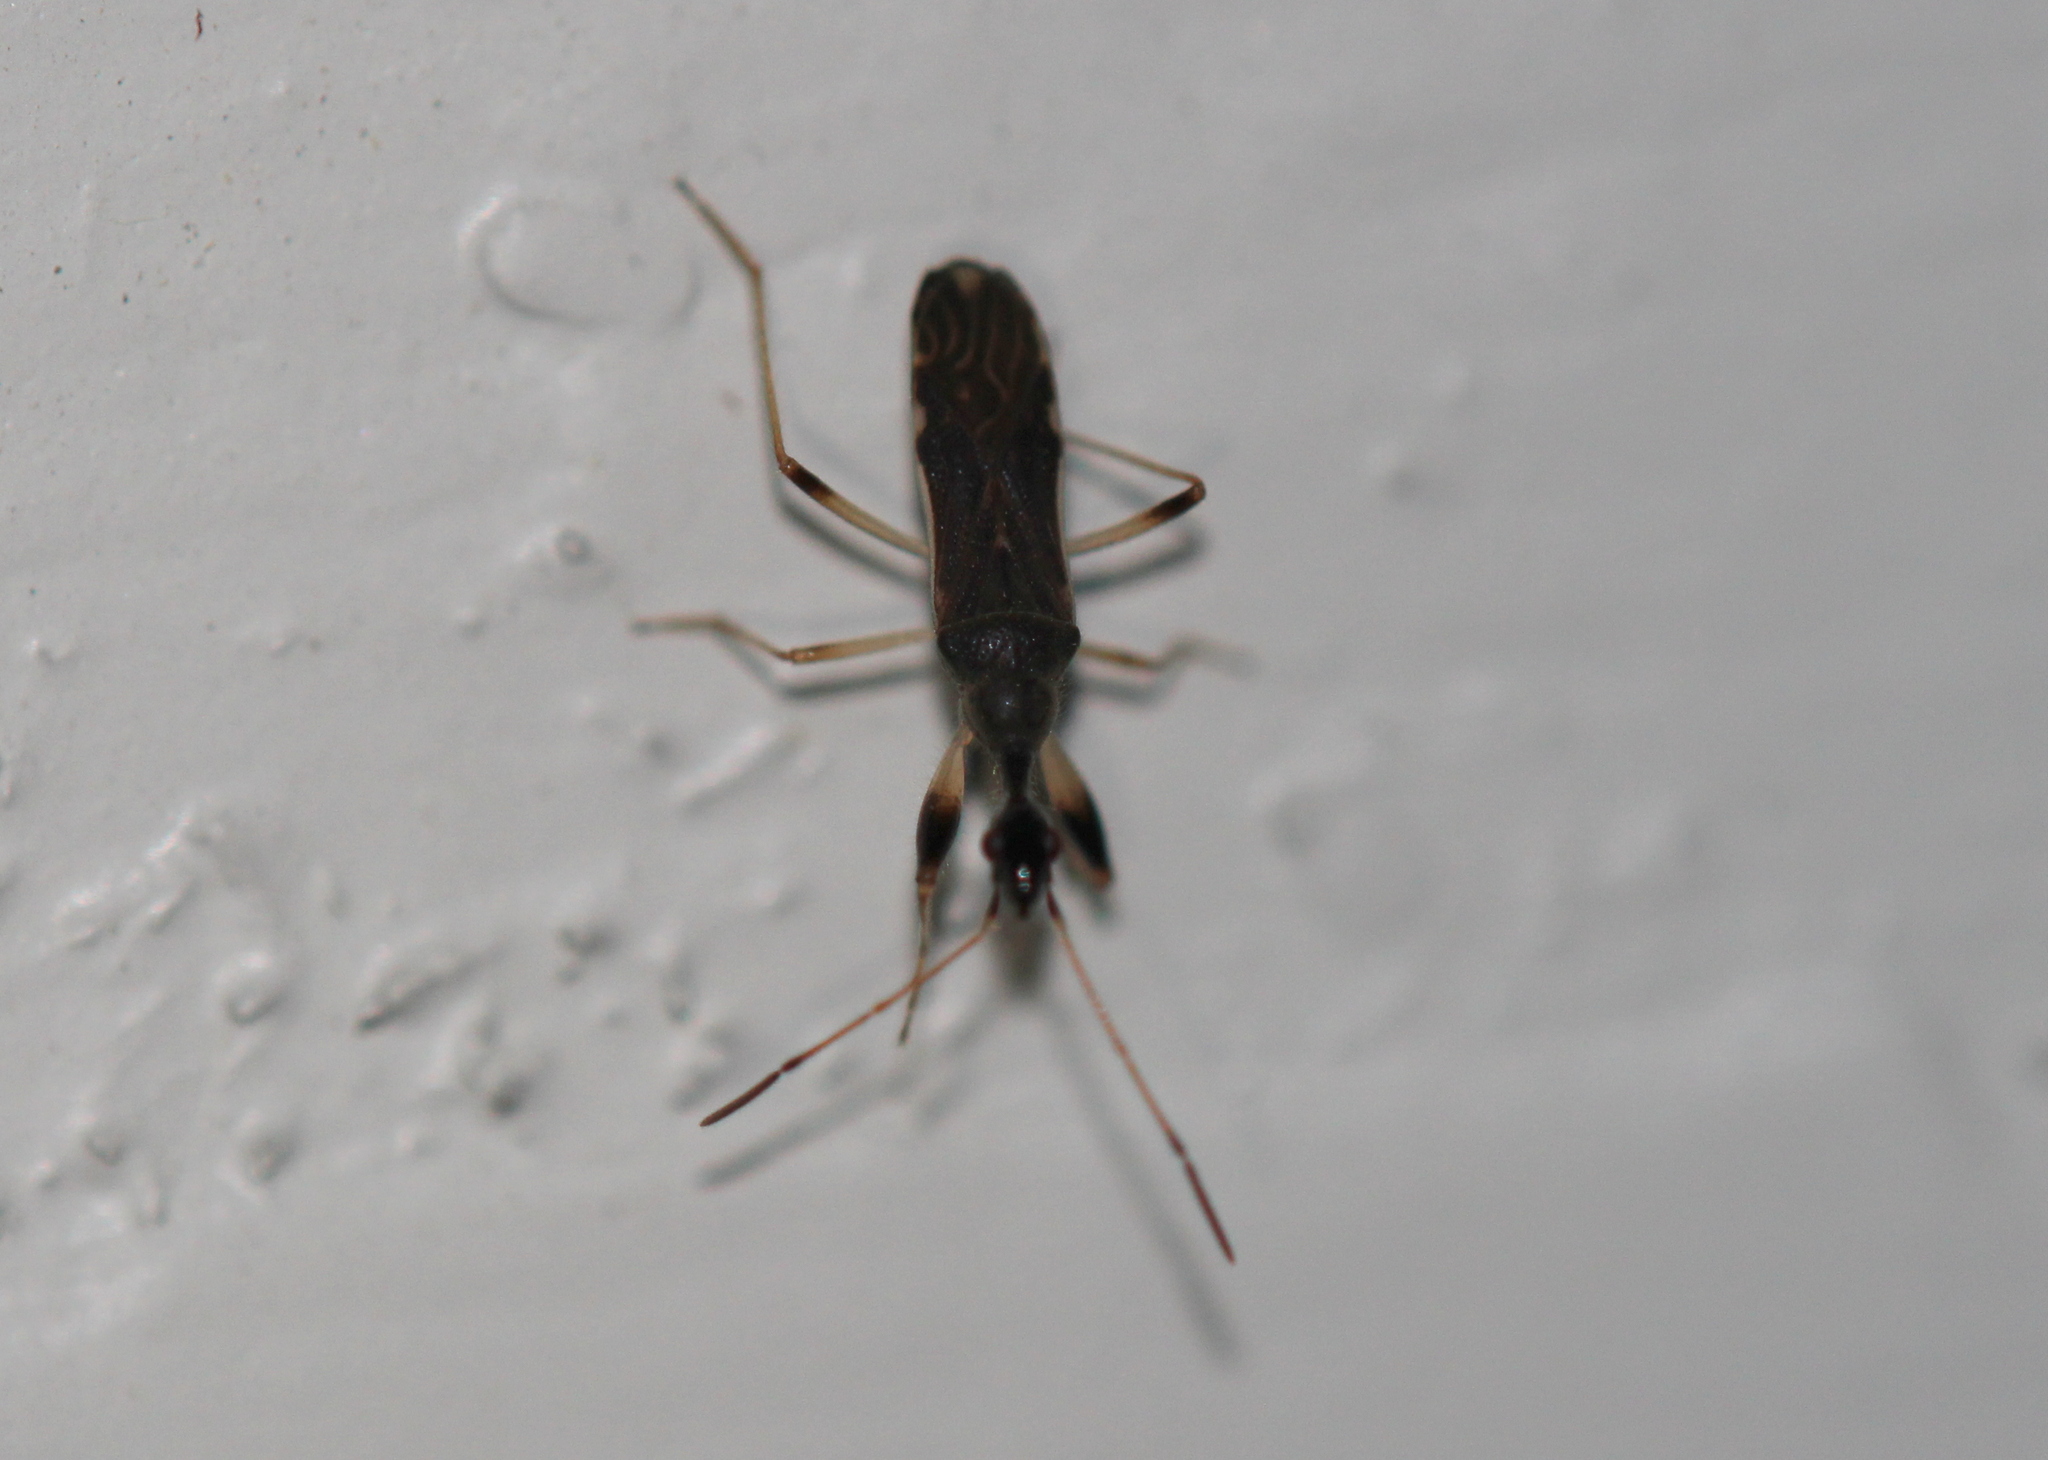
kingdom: Animalia
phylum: Arthropoda
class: Insecta
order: Hemiptera
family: Rhyparochromidae
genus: Myodocha
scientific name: Myodocha serripes
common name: Long-necked seed bug
